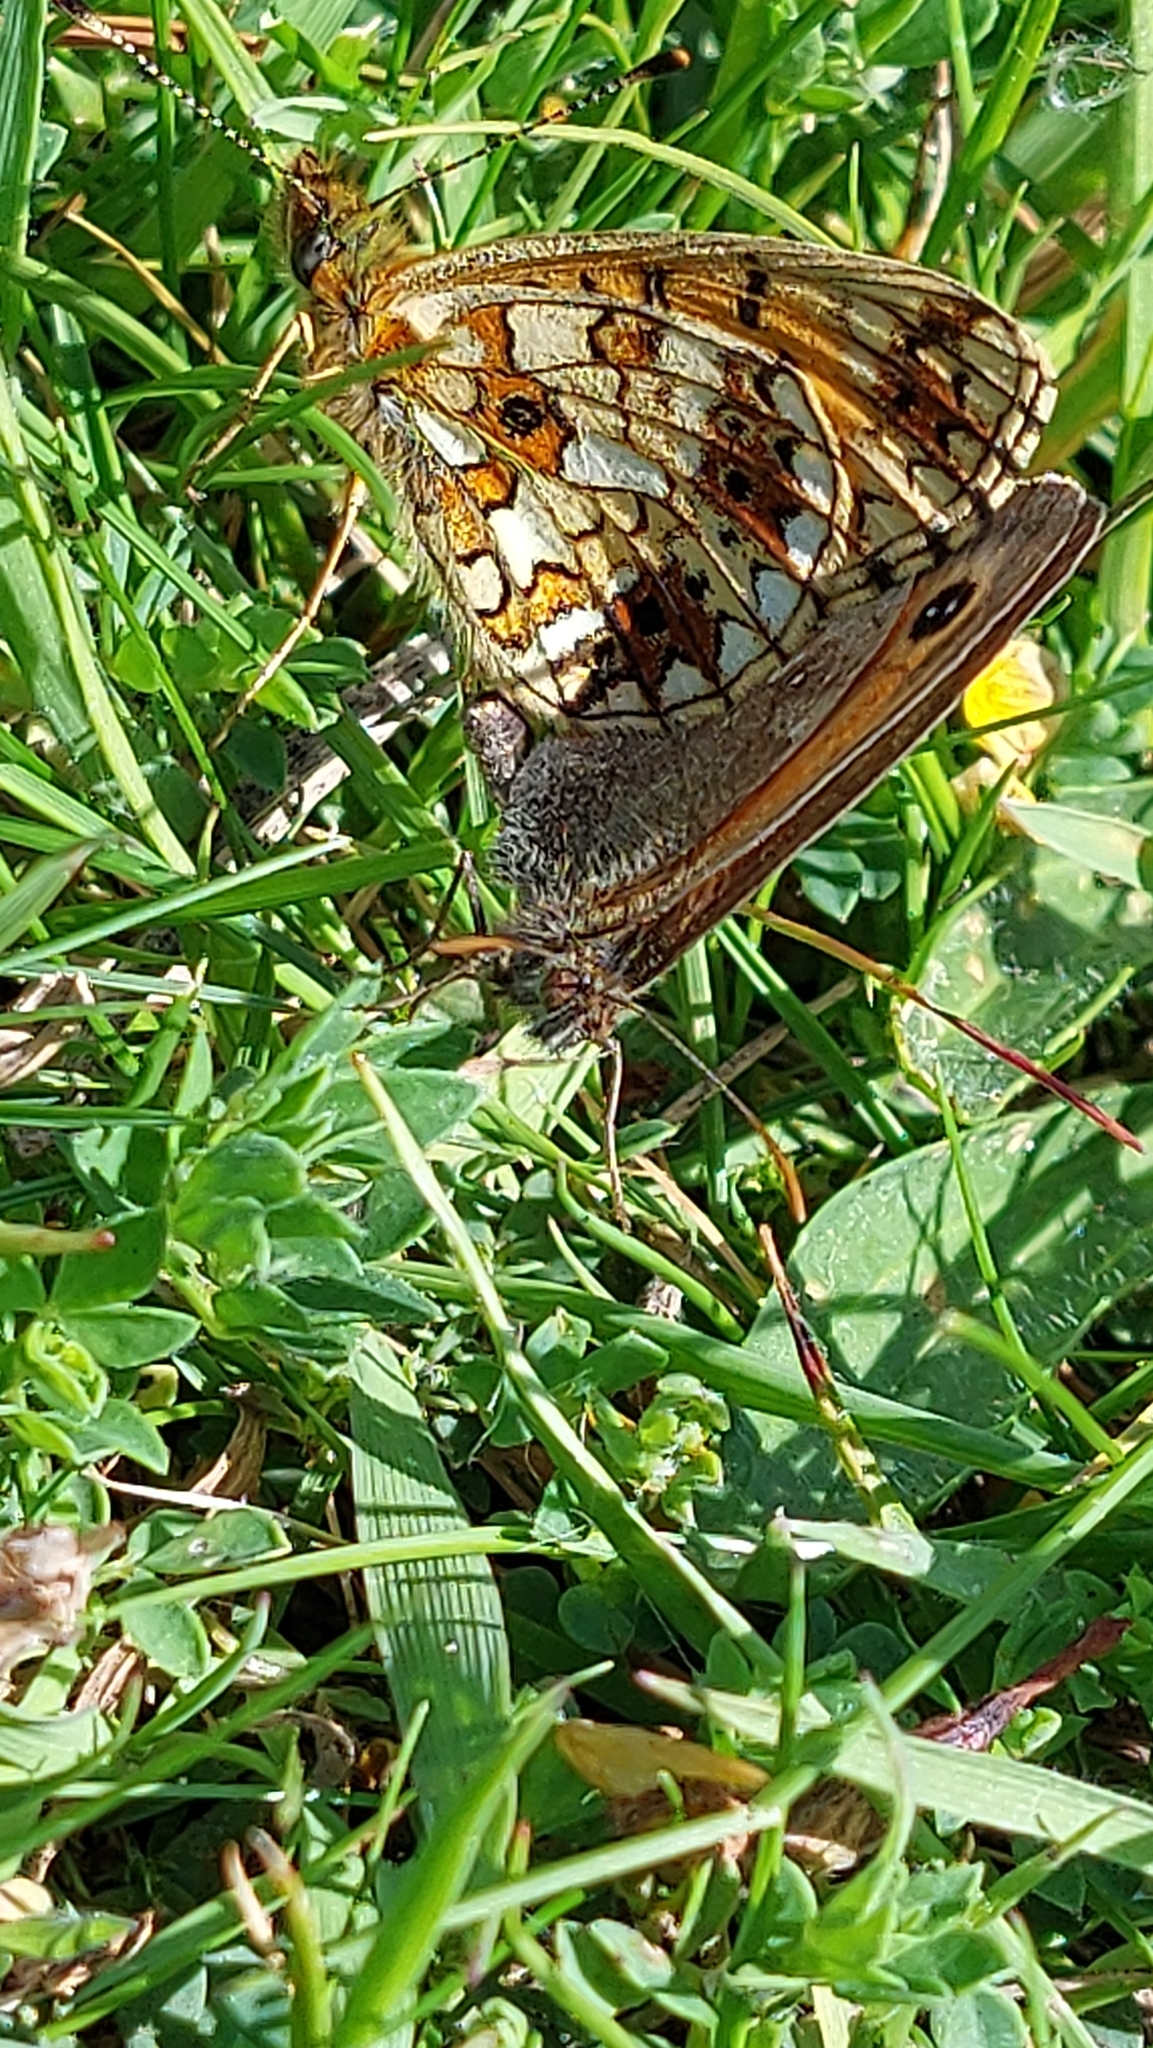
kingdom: Animalia
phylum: Arthropoda
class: Insecta
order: Lepidoptera
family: Nymphalidae
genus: Boloria
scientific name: Boloria selene
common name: Small pearl-bordered fritillary
